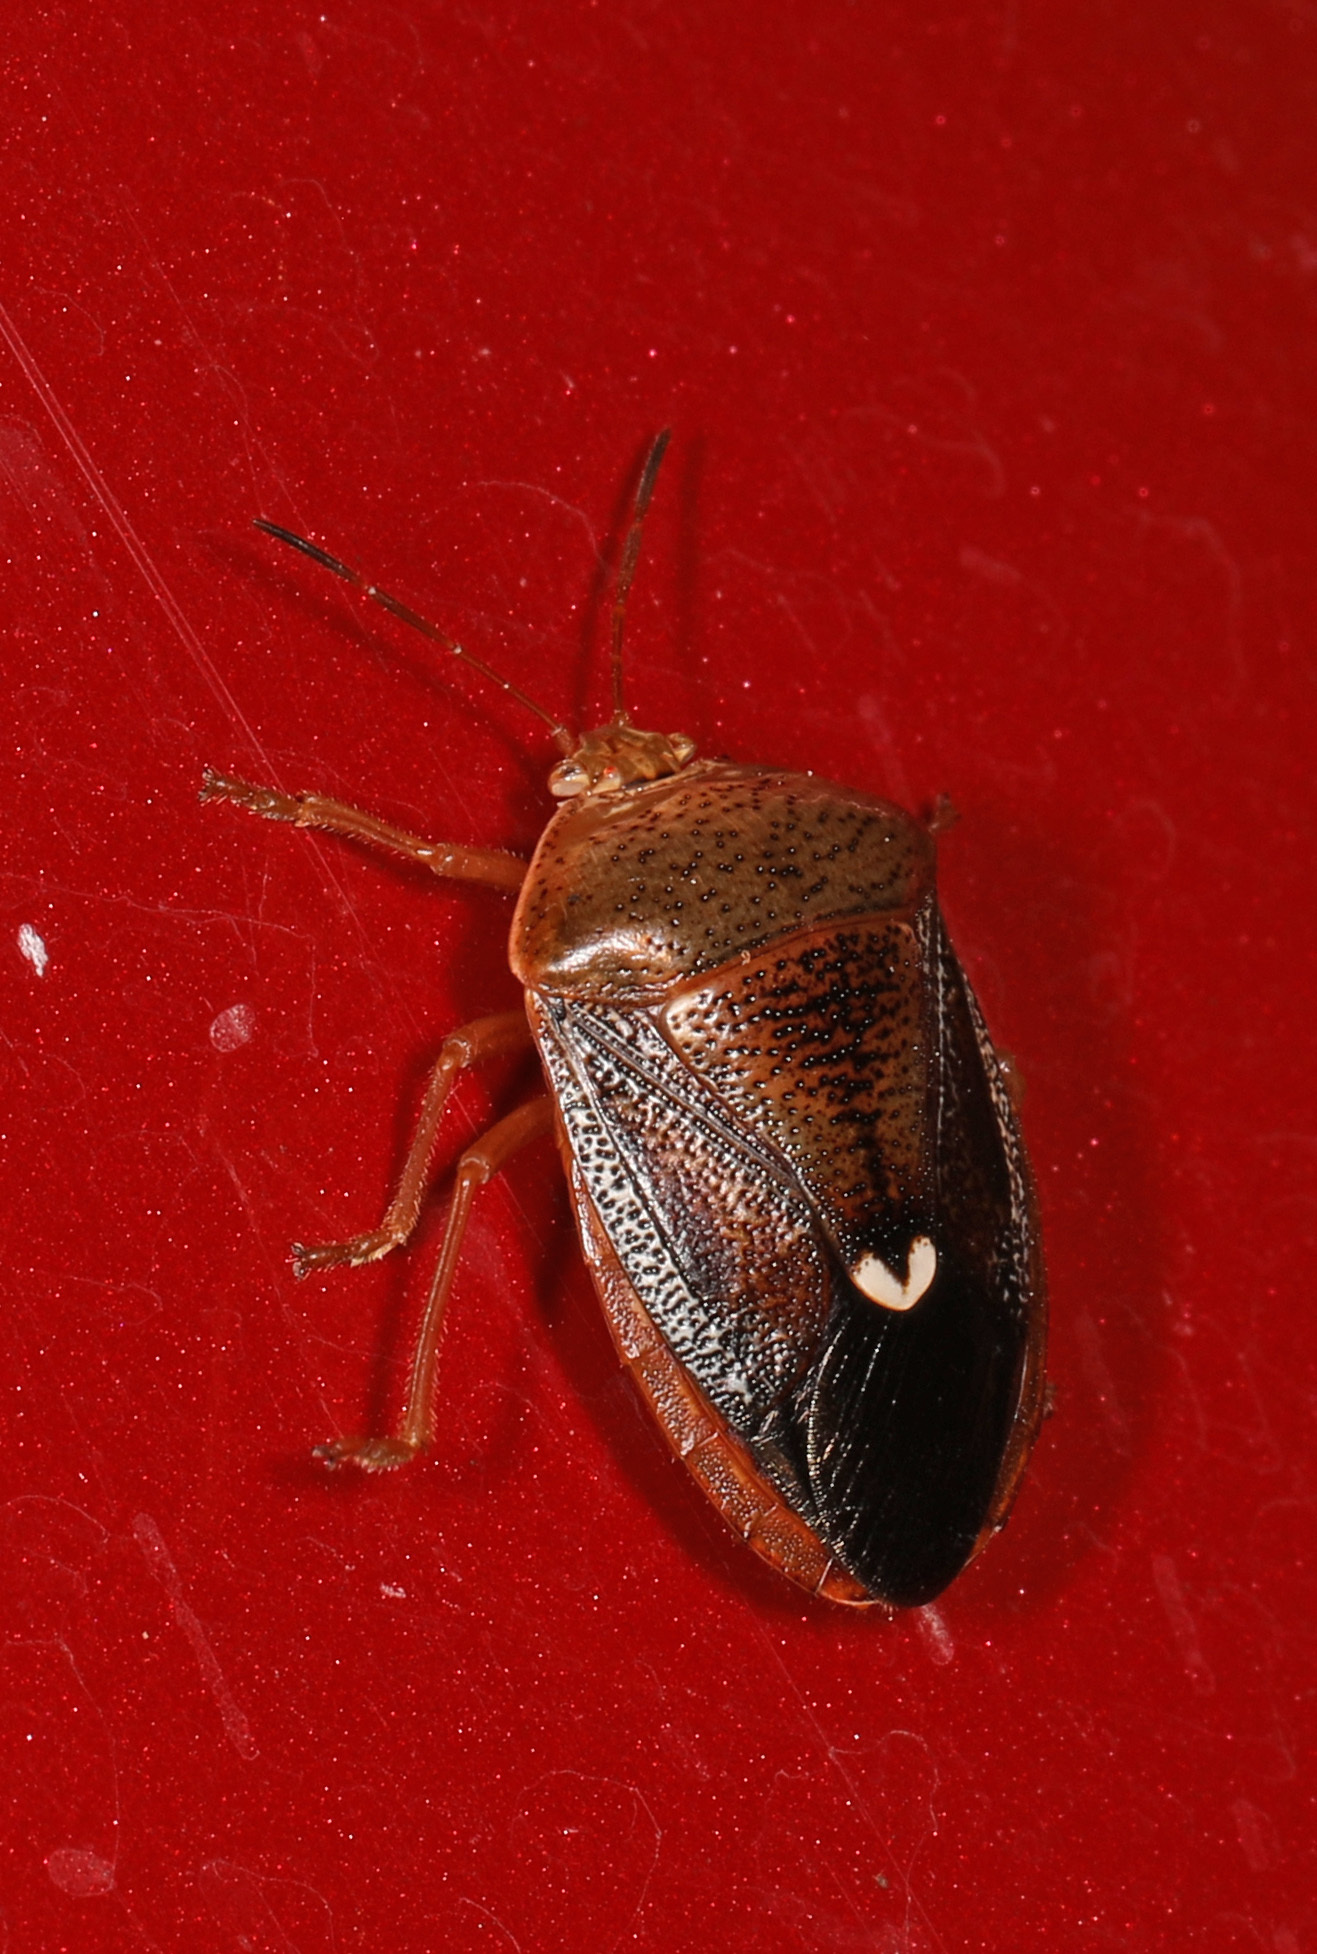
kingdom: Animalia
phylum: Arthropoda
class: Insecta
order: Hemiptera
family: Pentatomidae
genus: Edessa
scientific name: Edessa bifida
